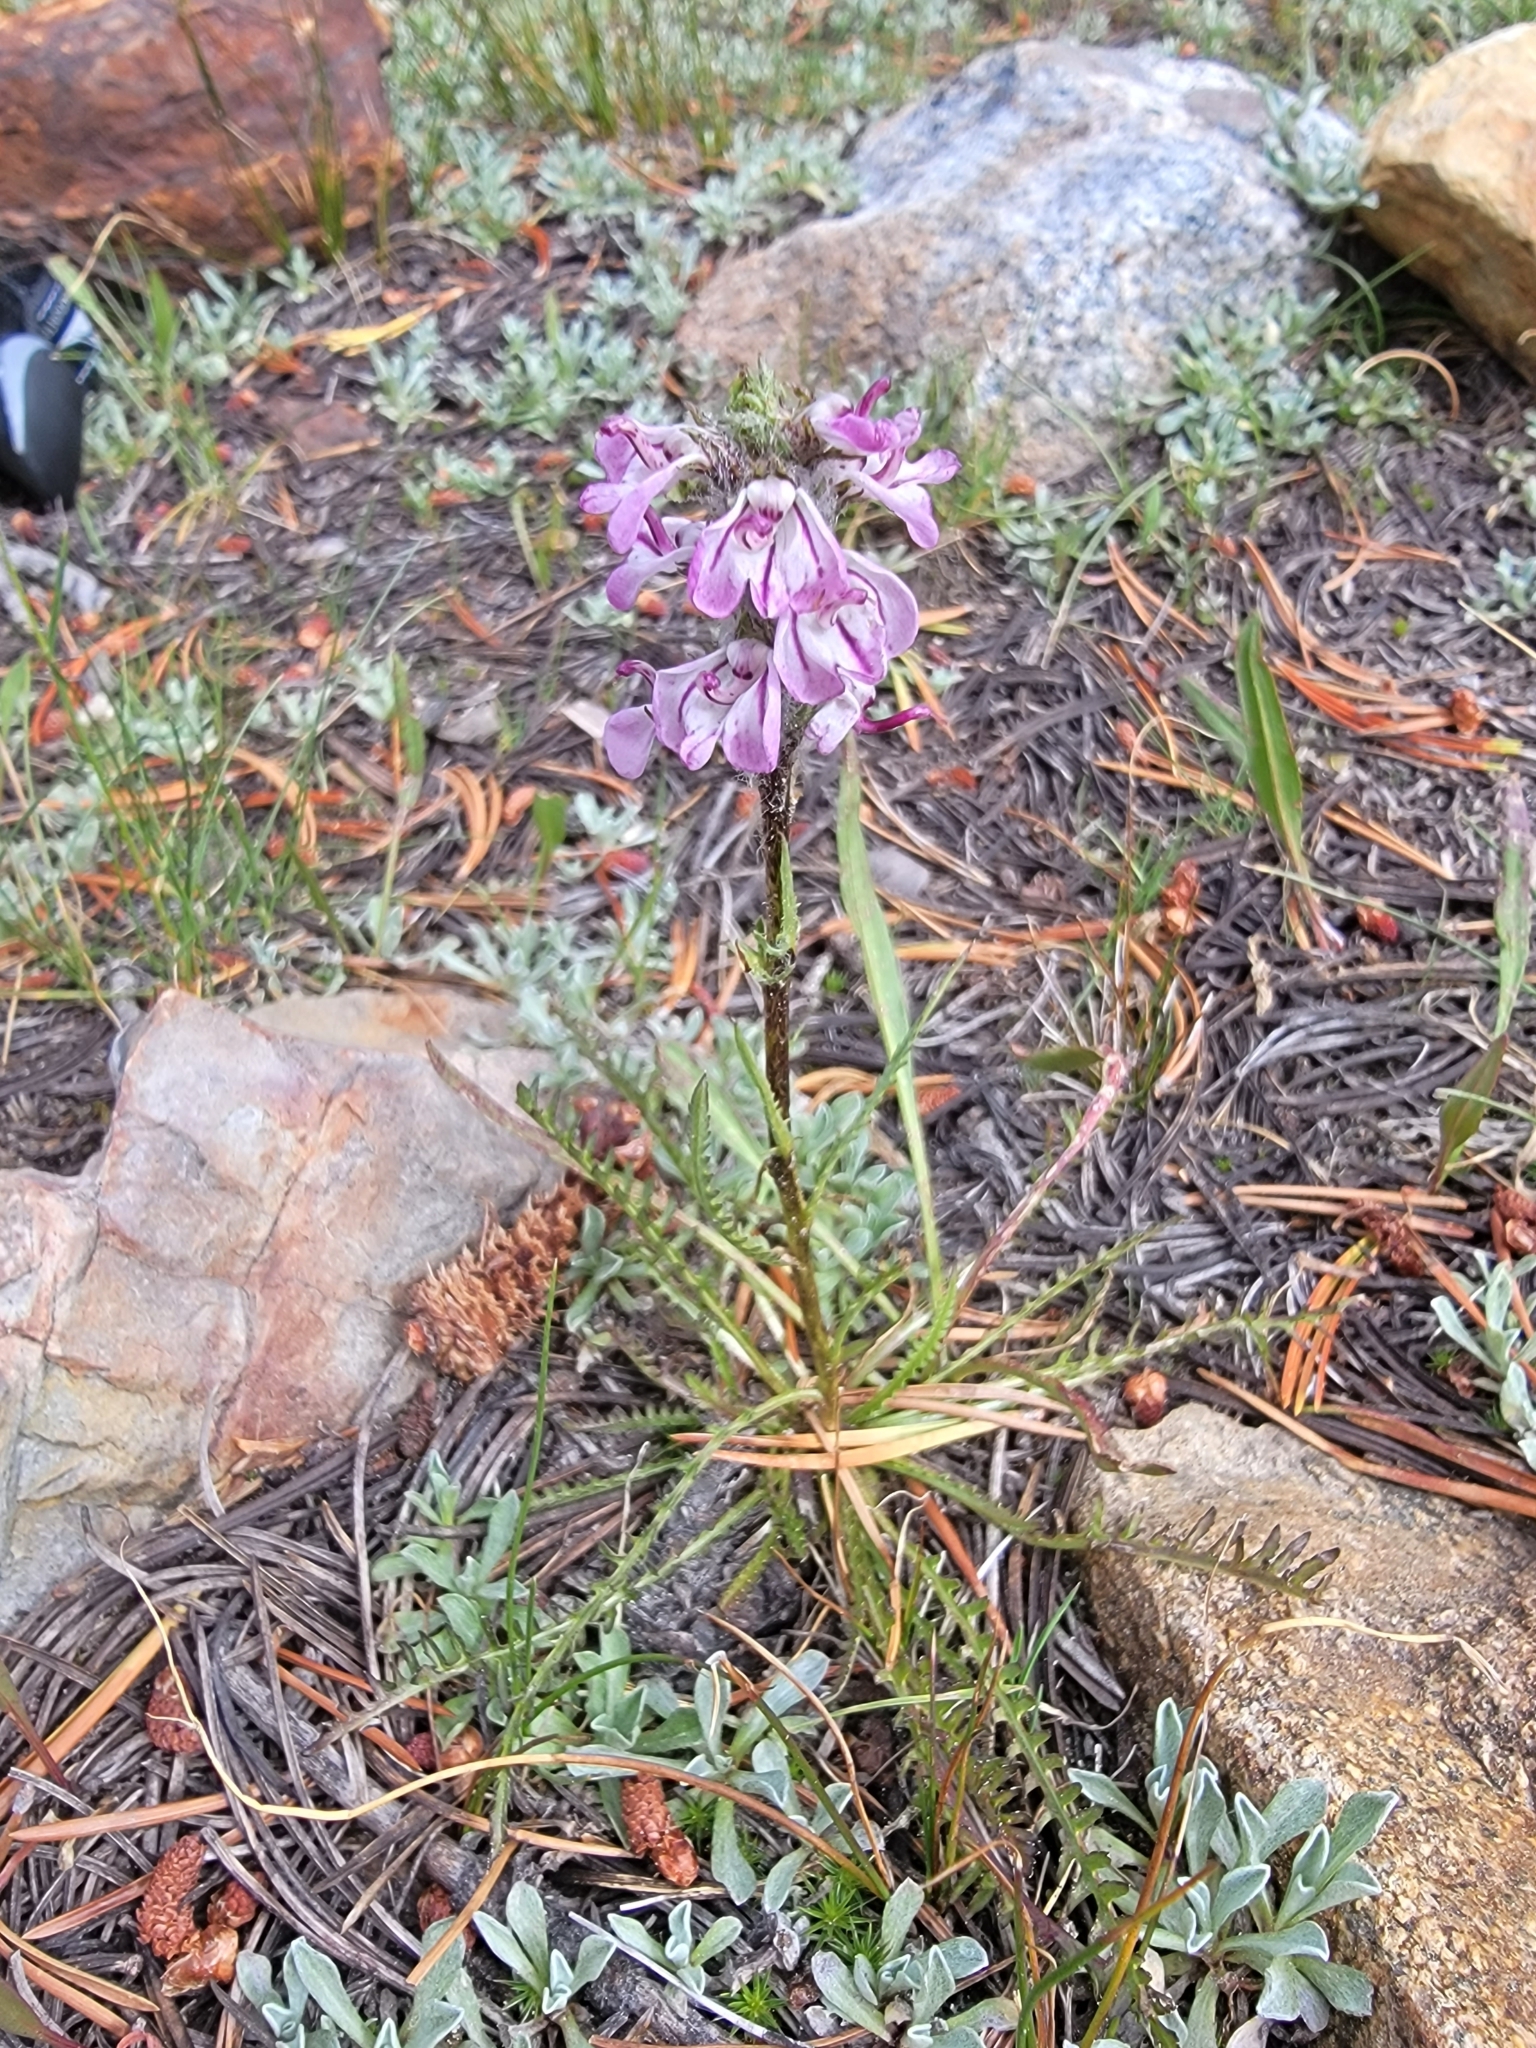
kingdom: Plantae
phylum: Tracheophyta
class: Magnoliopsida
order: Lamiales
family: Orobanchaceae
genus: Pedicularis
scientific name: Pedicularis attollens
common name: Slender pedicularis
